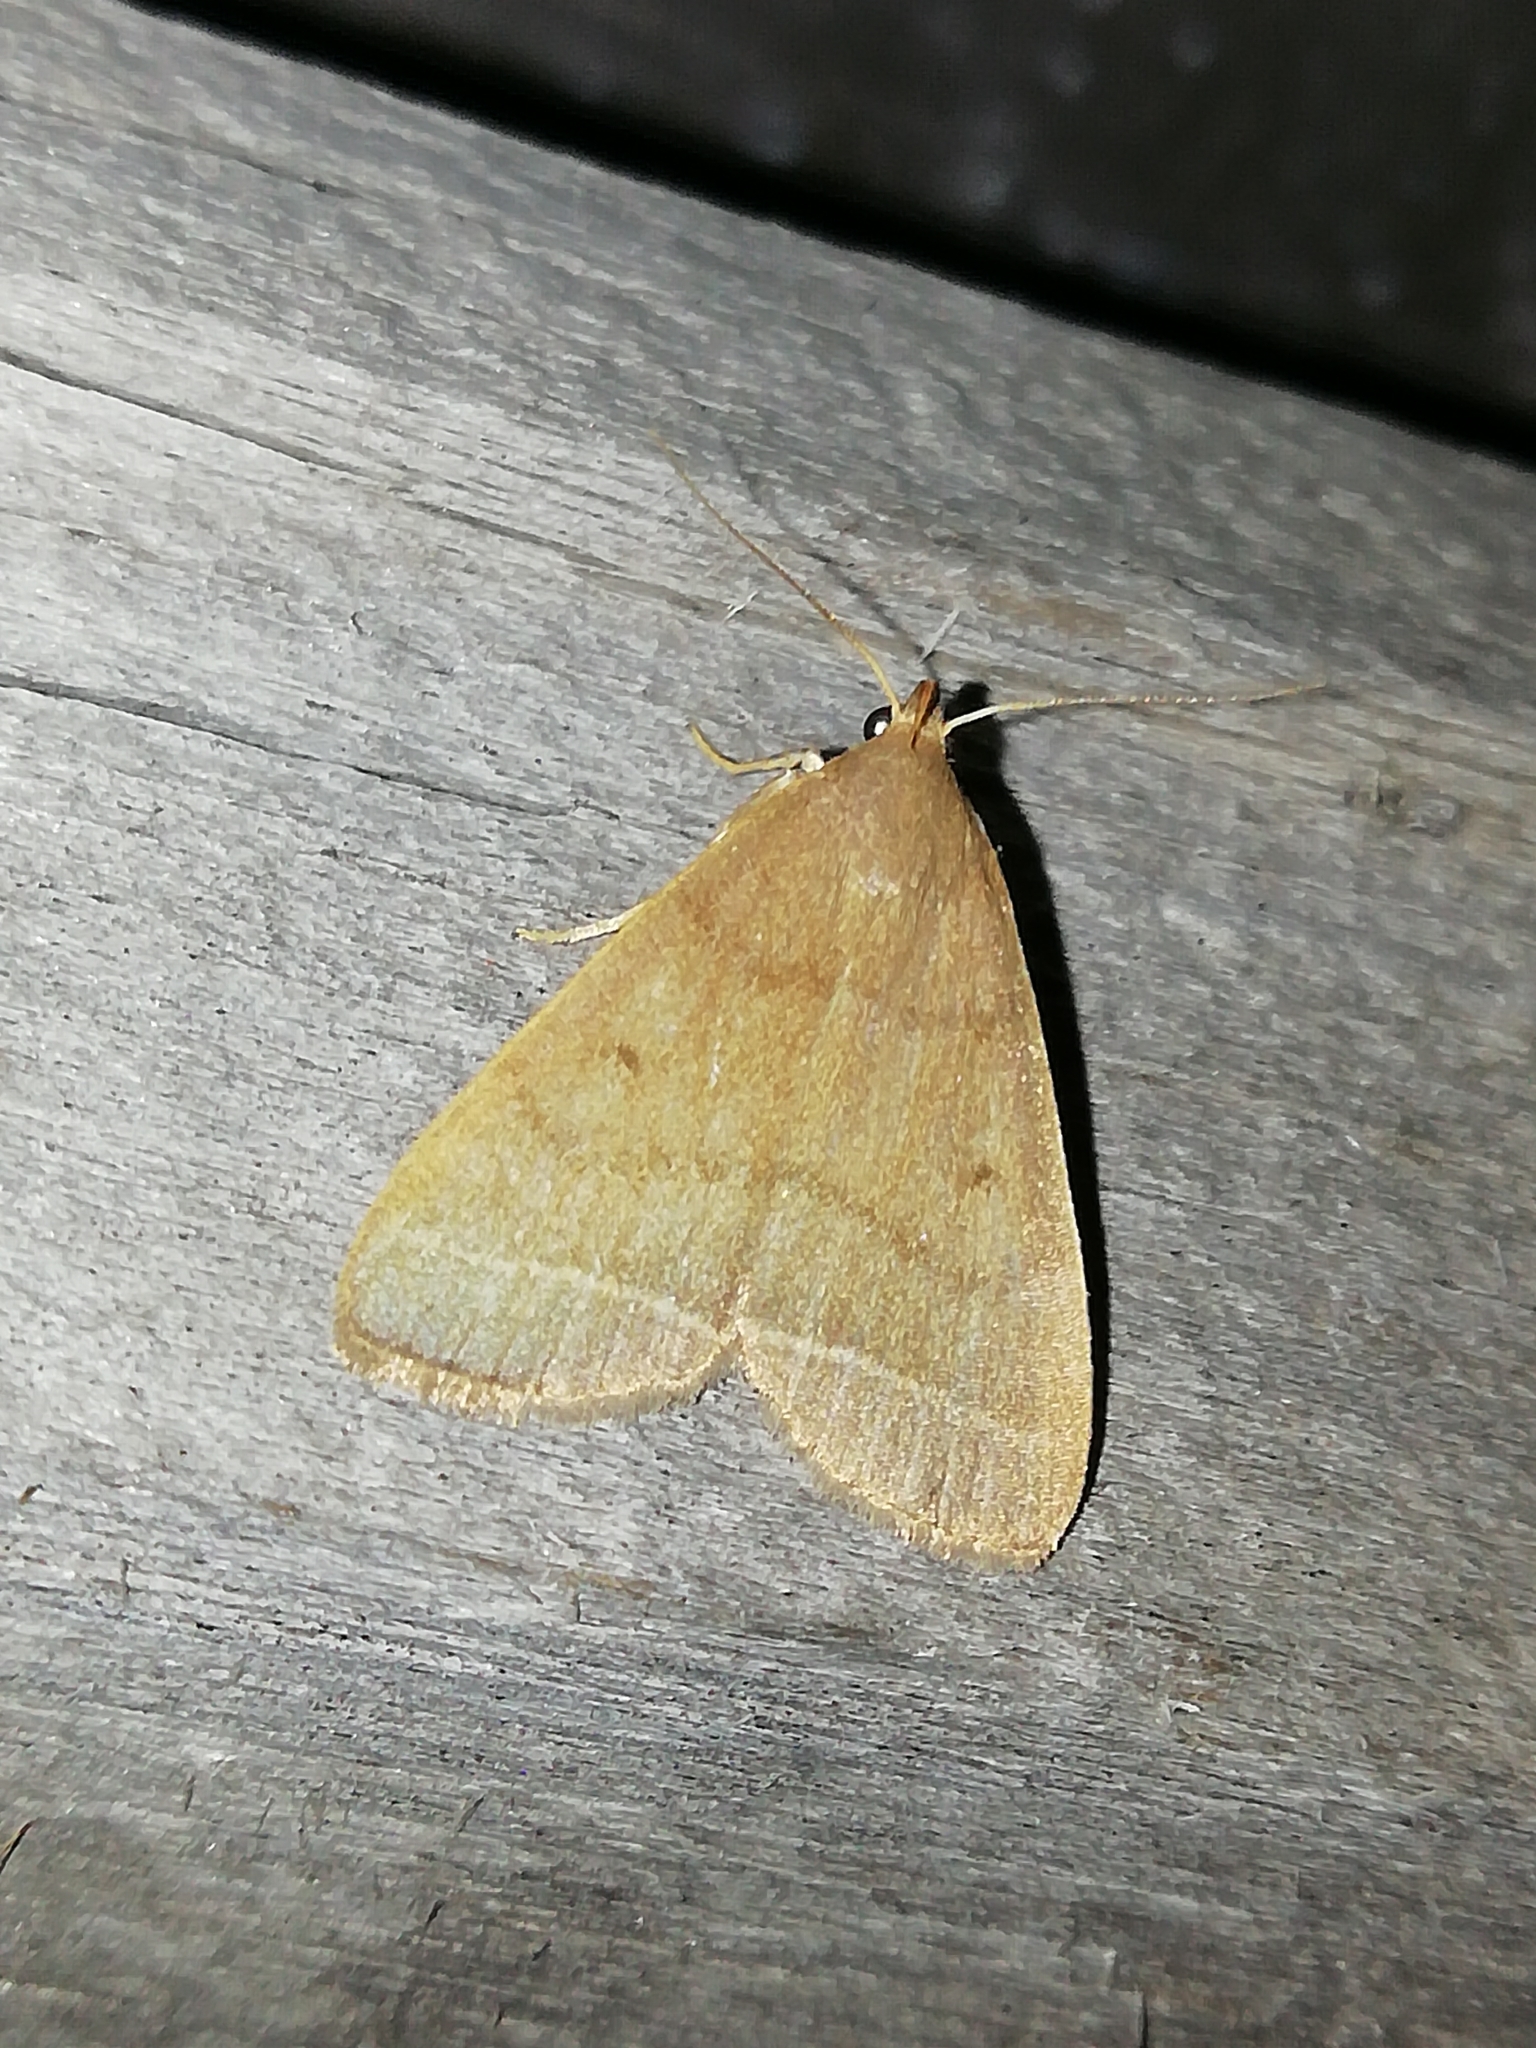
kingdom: Animalia
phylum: Arthropoda
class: Insecta
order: Lepidoptera
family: Erebidae
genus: Simplicia
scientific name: Simplicia rectalis
